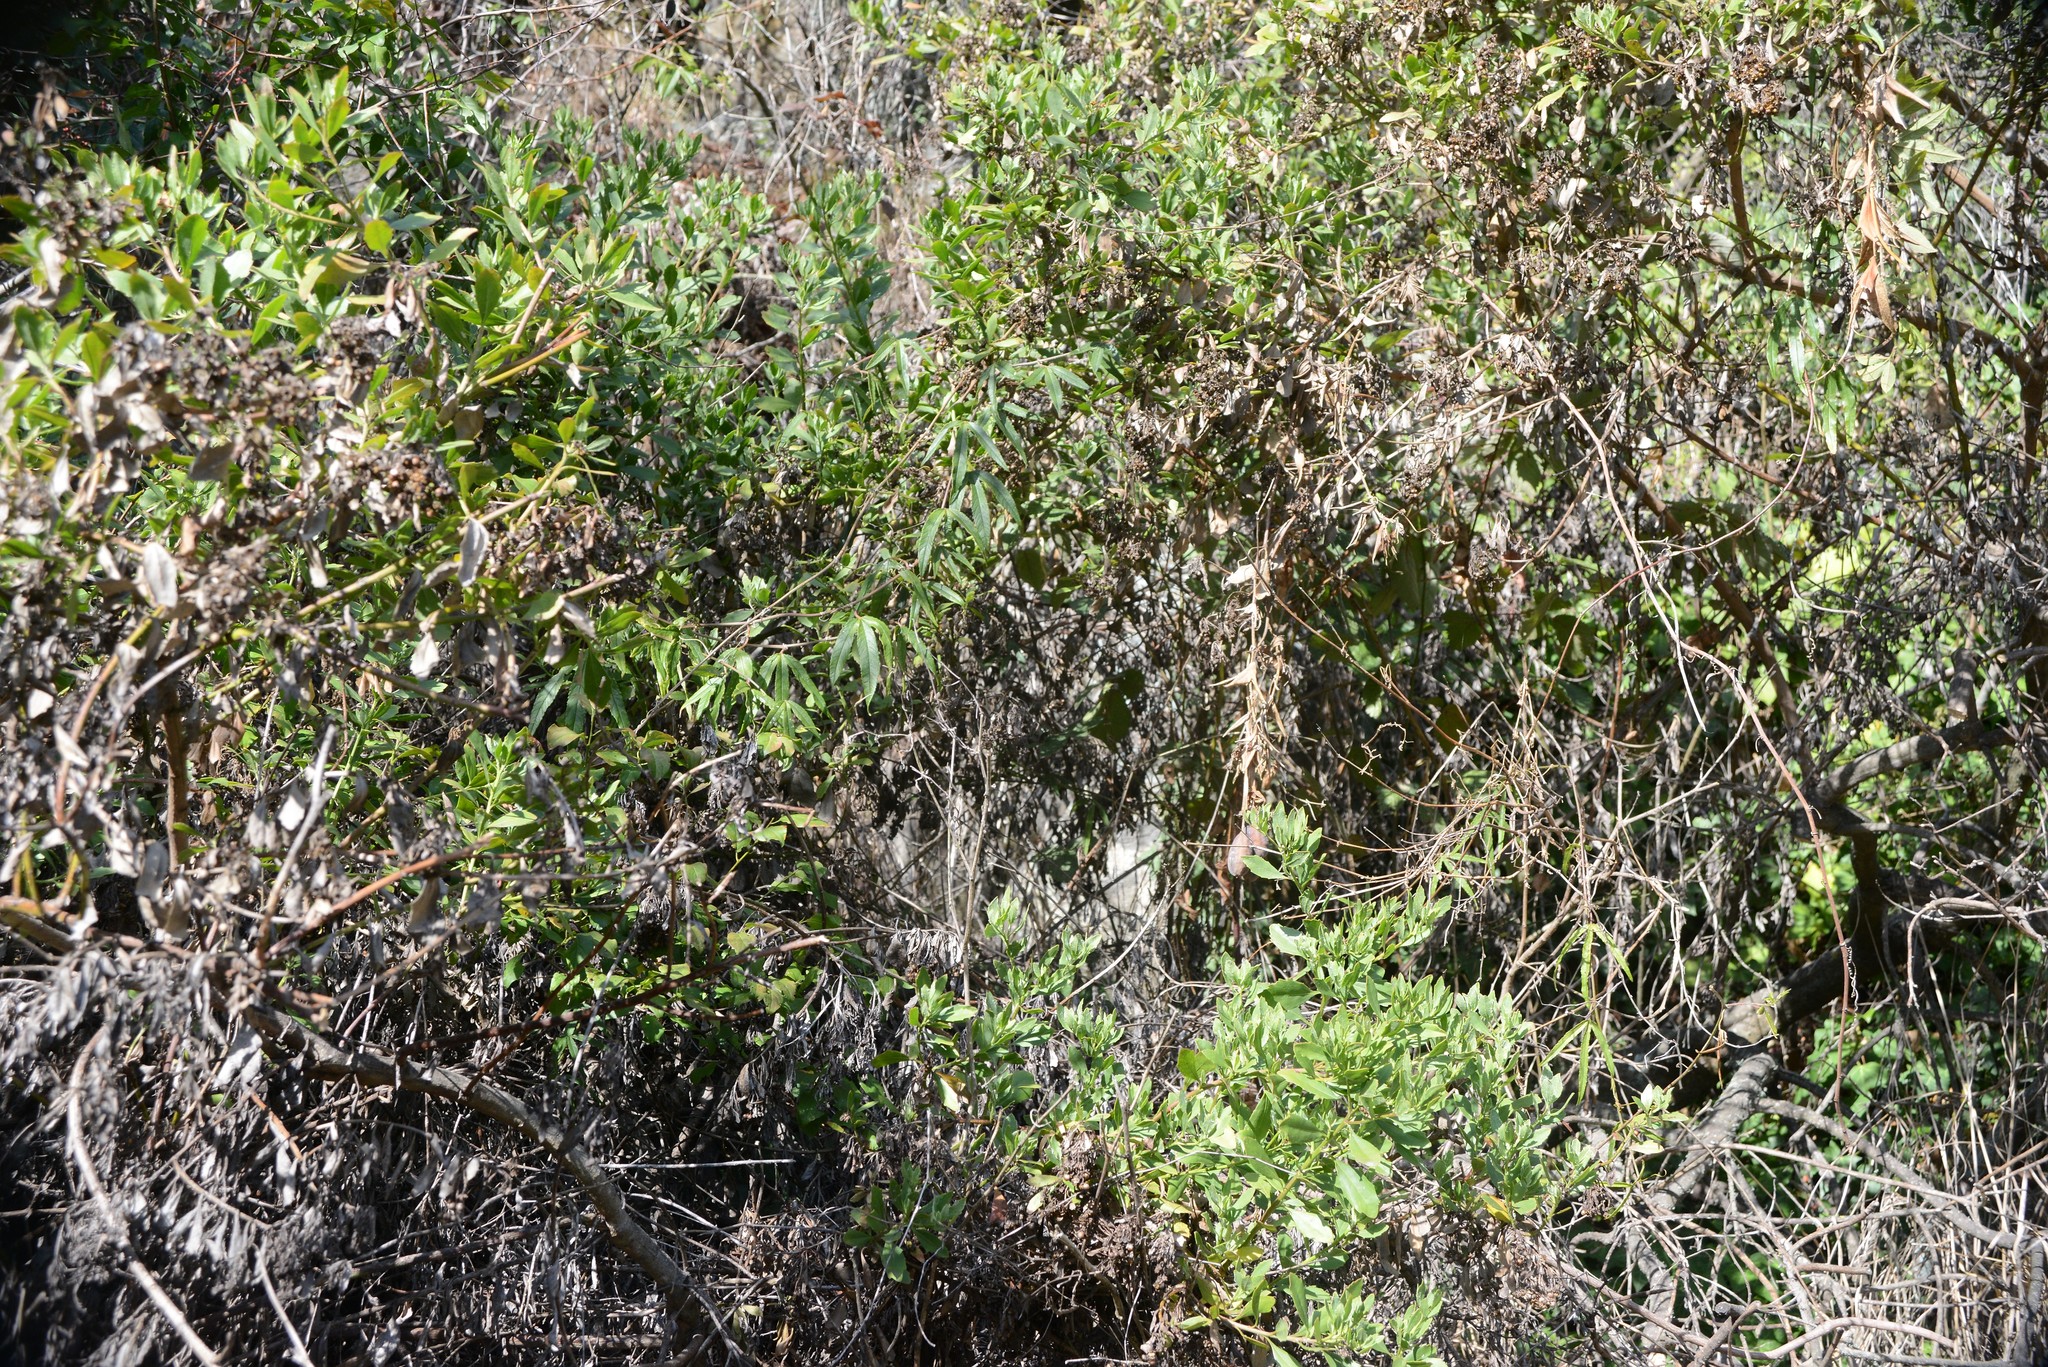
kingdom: Plantae
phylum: Tracheophyta
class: Magnoliopsida
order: Asterales
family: Asteraceae
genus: Osteospermum
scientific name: Osteospermum moniliferum
